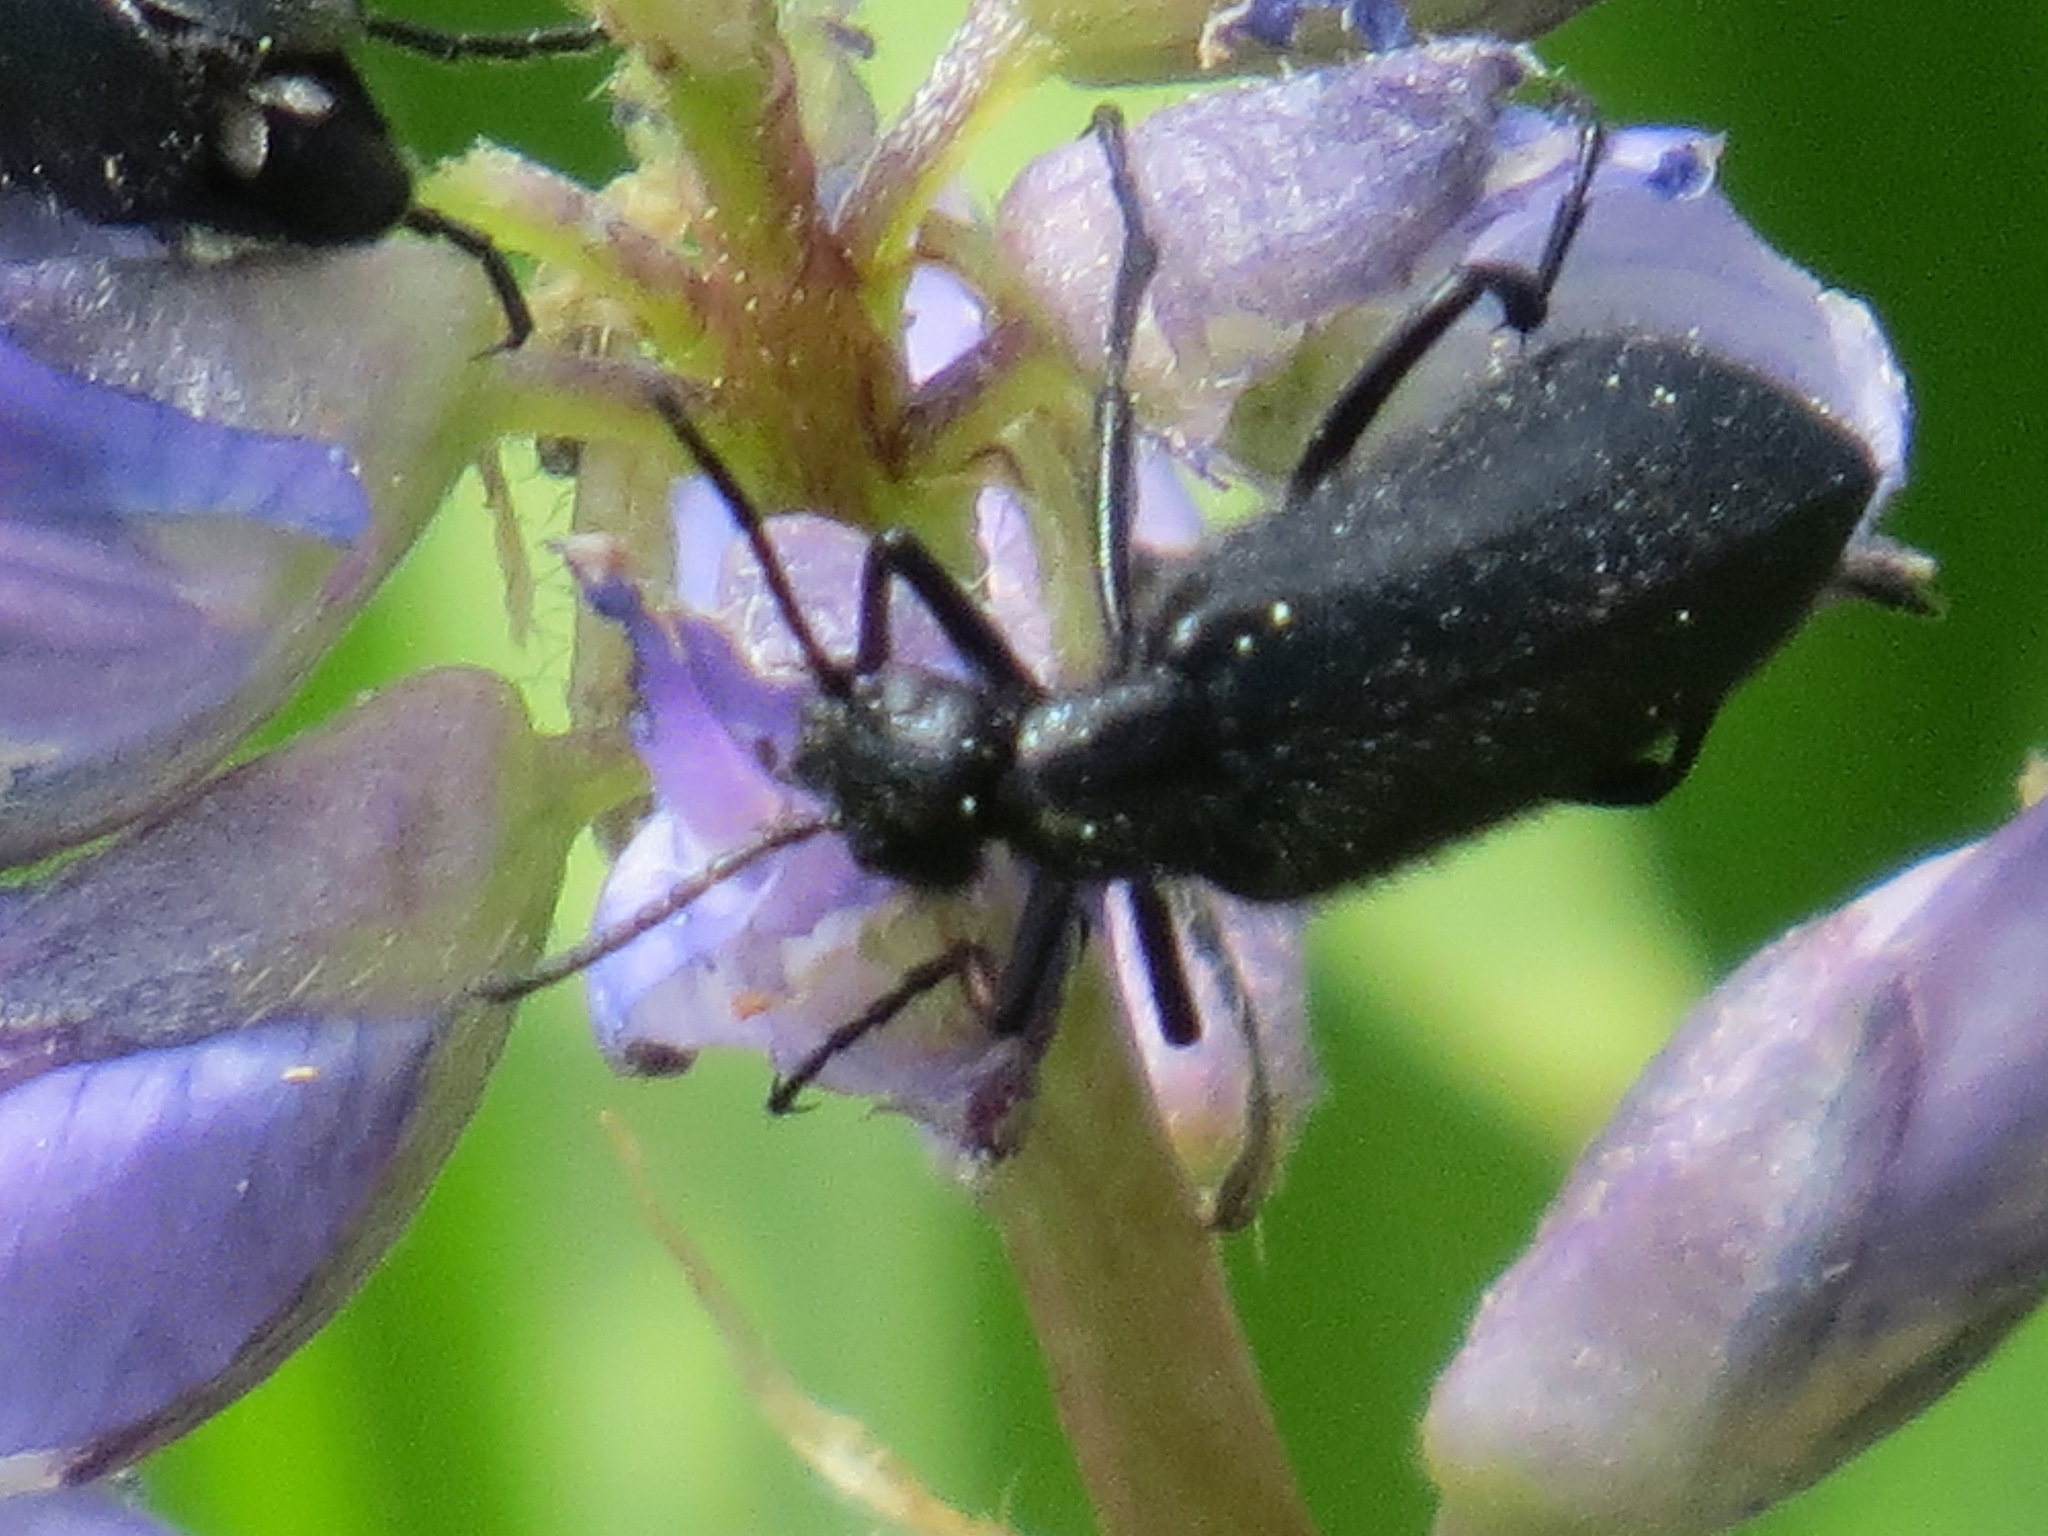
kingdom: Animalia
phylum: Arthropoda
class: Insecta
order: Coleoptera
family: Meloidae
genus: Epicauta
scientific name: Epicauta puncticollis
